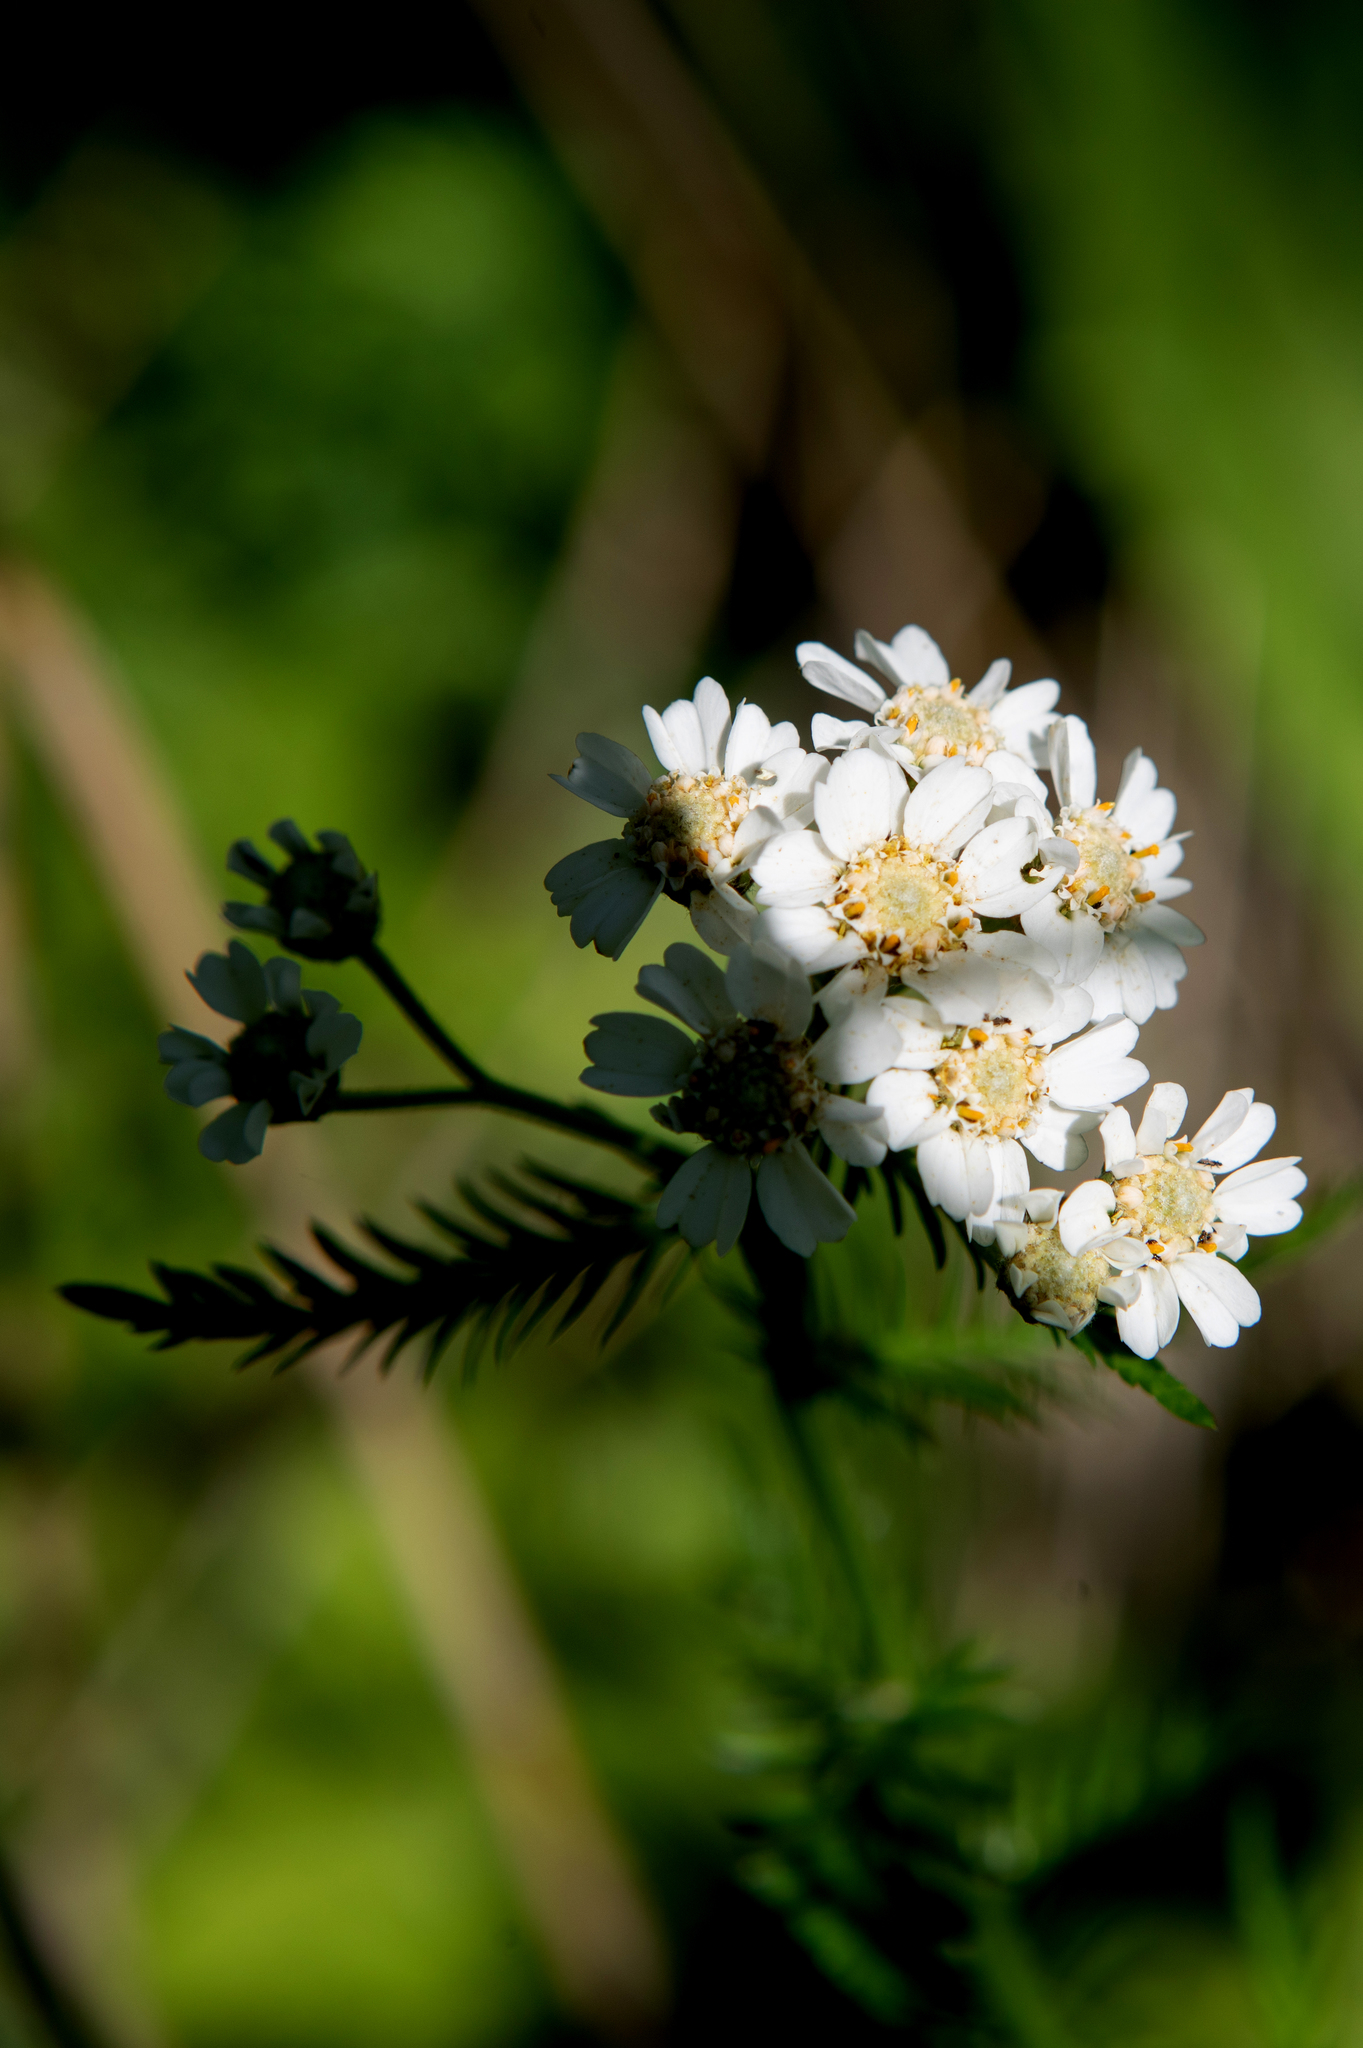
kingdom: Plantae
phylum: Tracheophyta
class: Magnoliopsida
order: Asterales
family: Asteraceae
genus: Achillea
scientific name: Achillea impatiens
